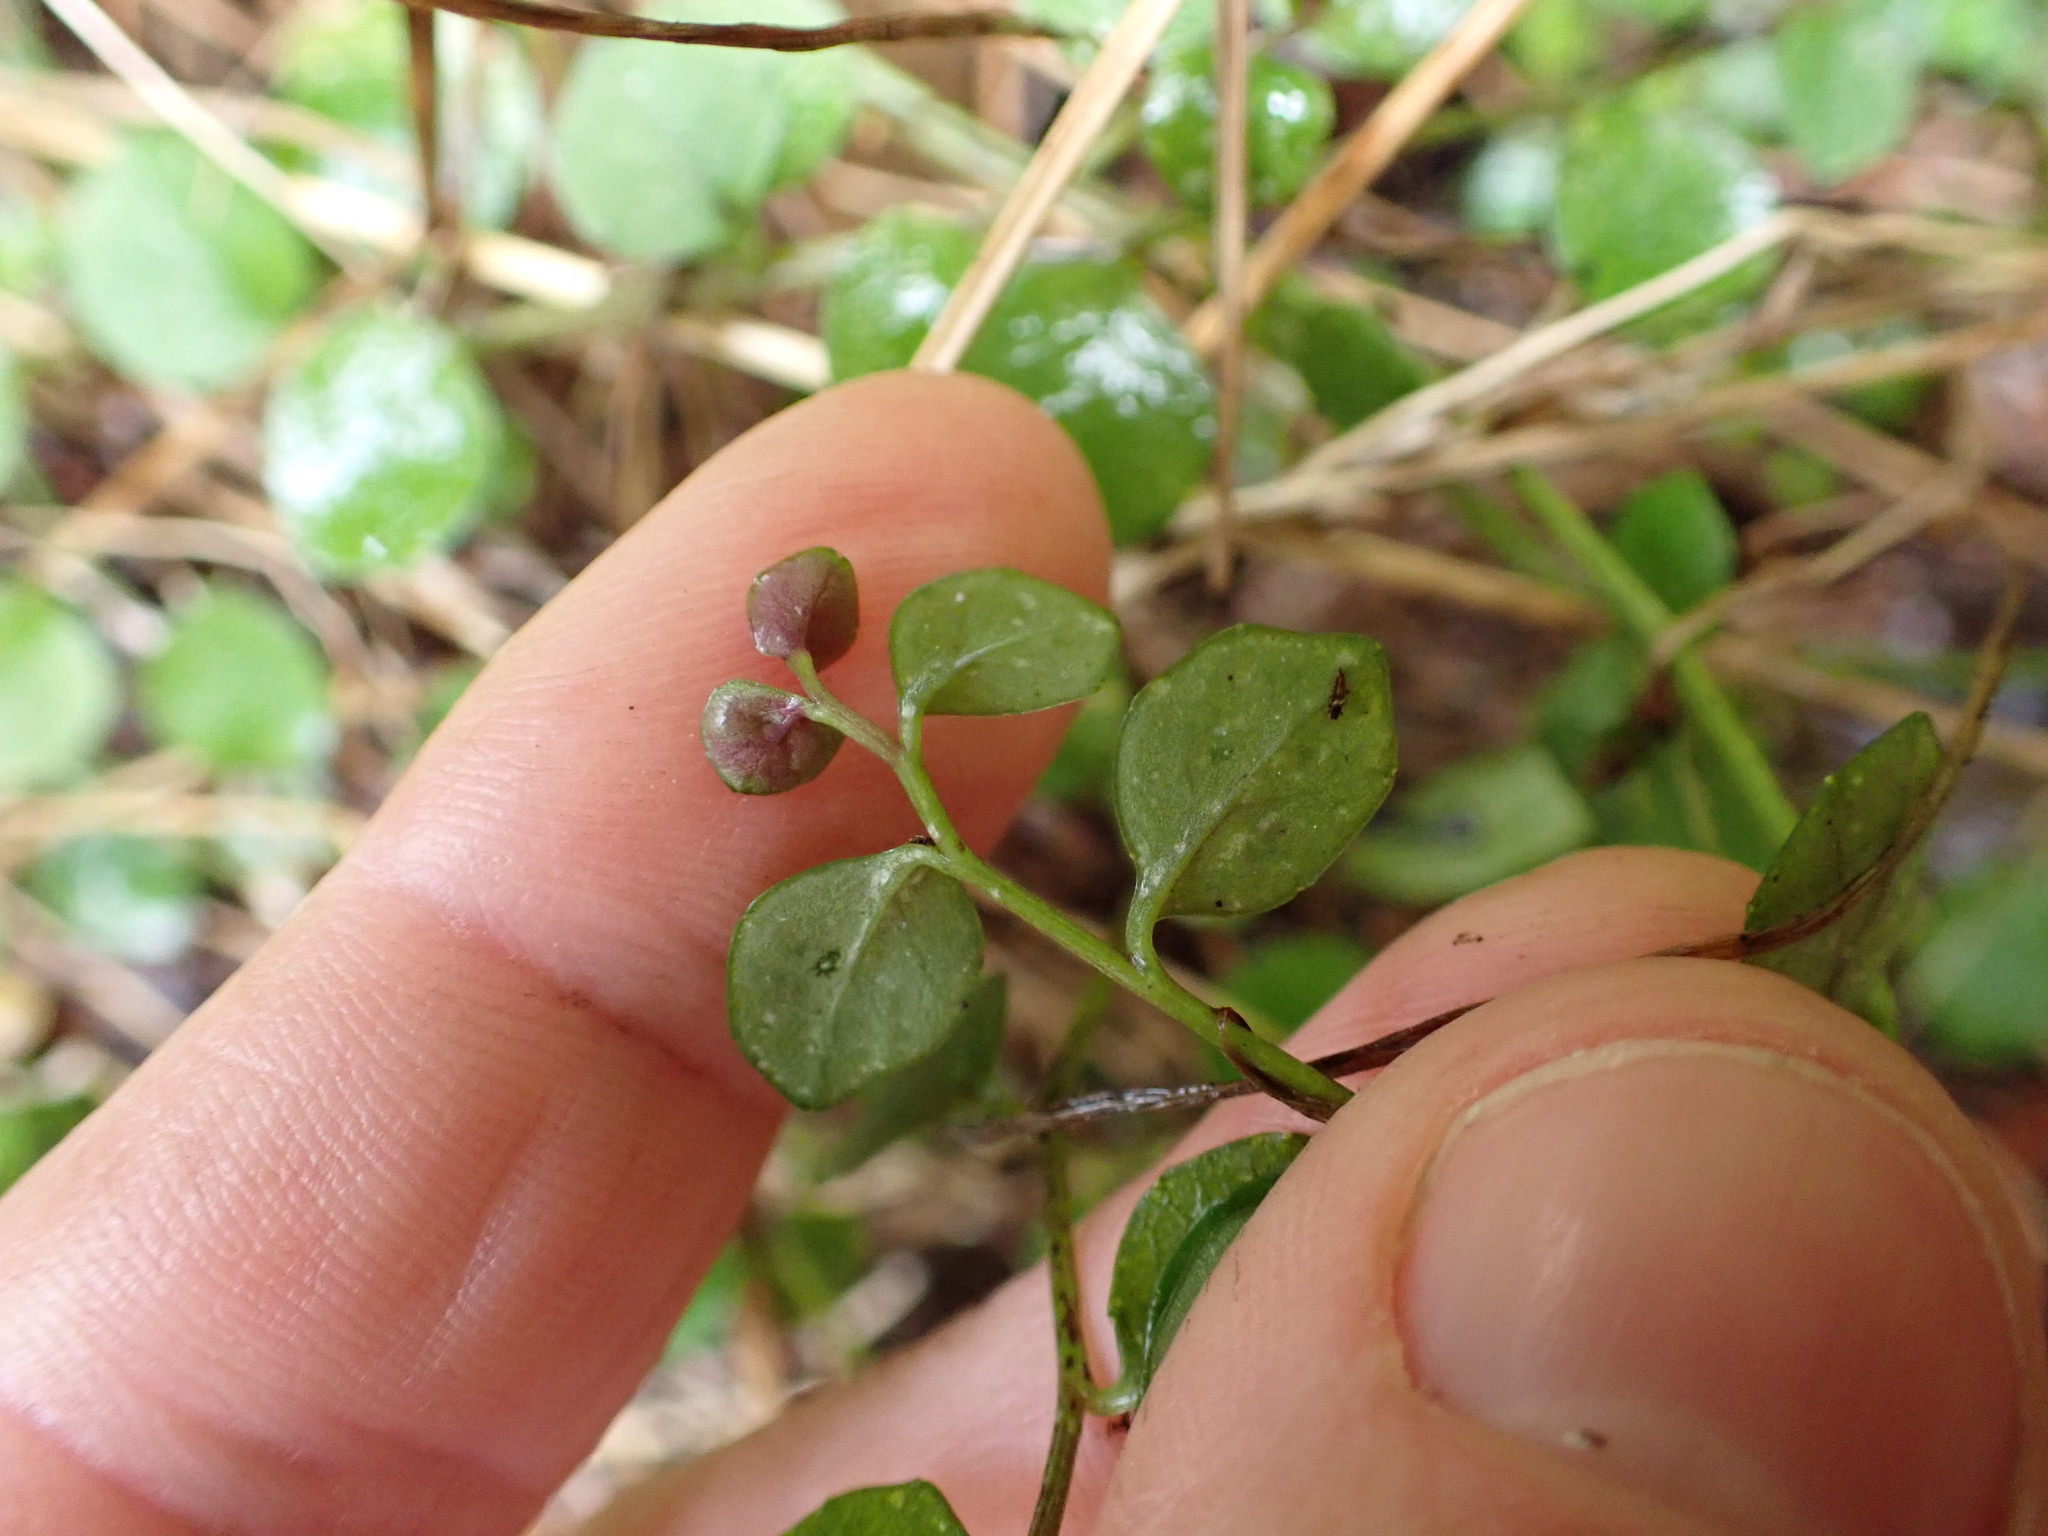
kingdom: Plantae
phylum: Tracheophyta
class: Magnoliopsida
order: Asterales
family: Campanulaceae
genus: Lobelia
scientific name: Lobelia angulata
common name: Lawn lobelia
